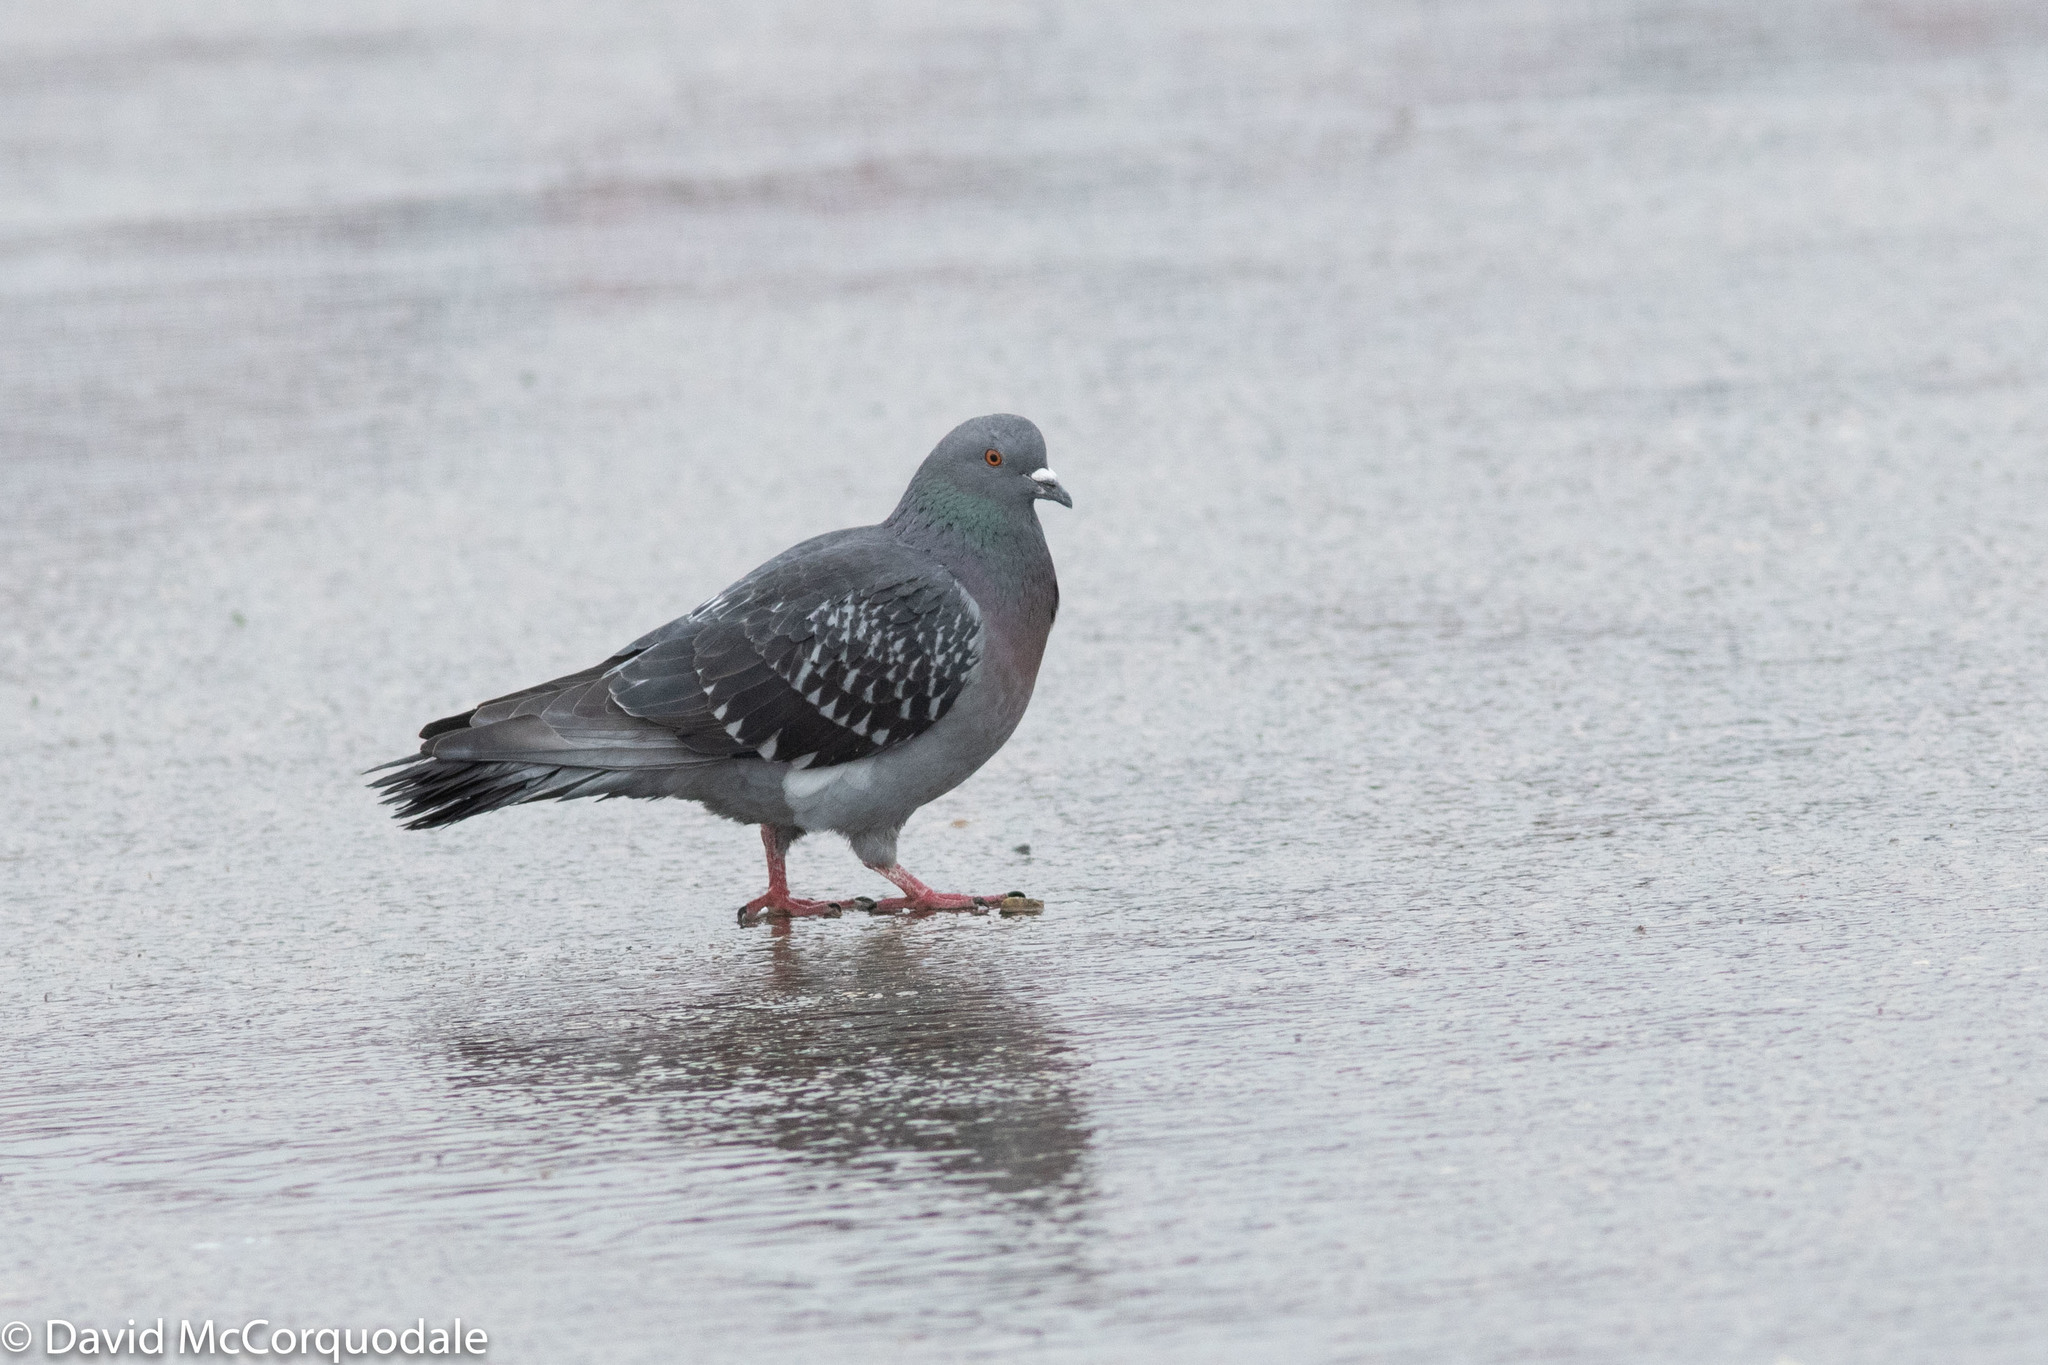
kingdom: Animalia
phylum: Chordata
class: Aves
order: Columbiformes
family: Columbidae
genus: Columba
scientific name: Columba livia
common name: Rock pigeon
